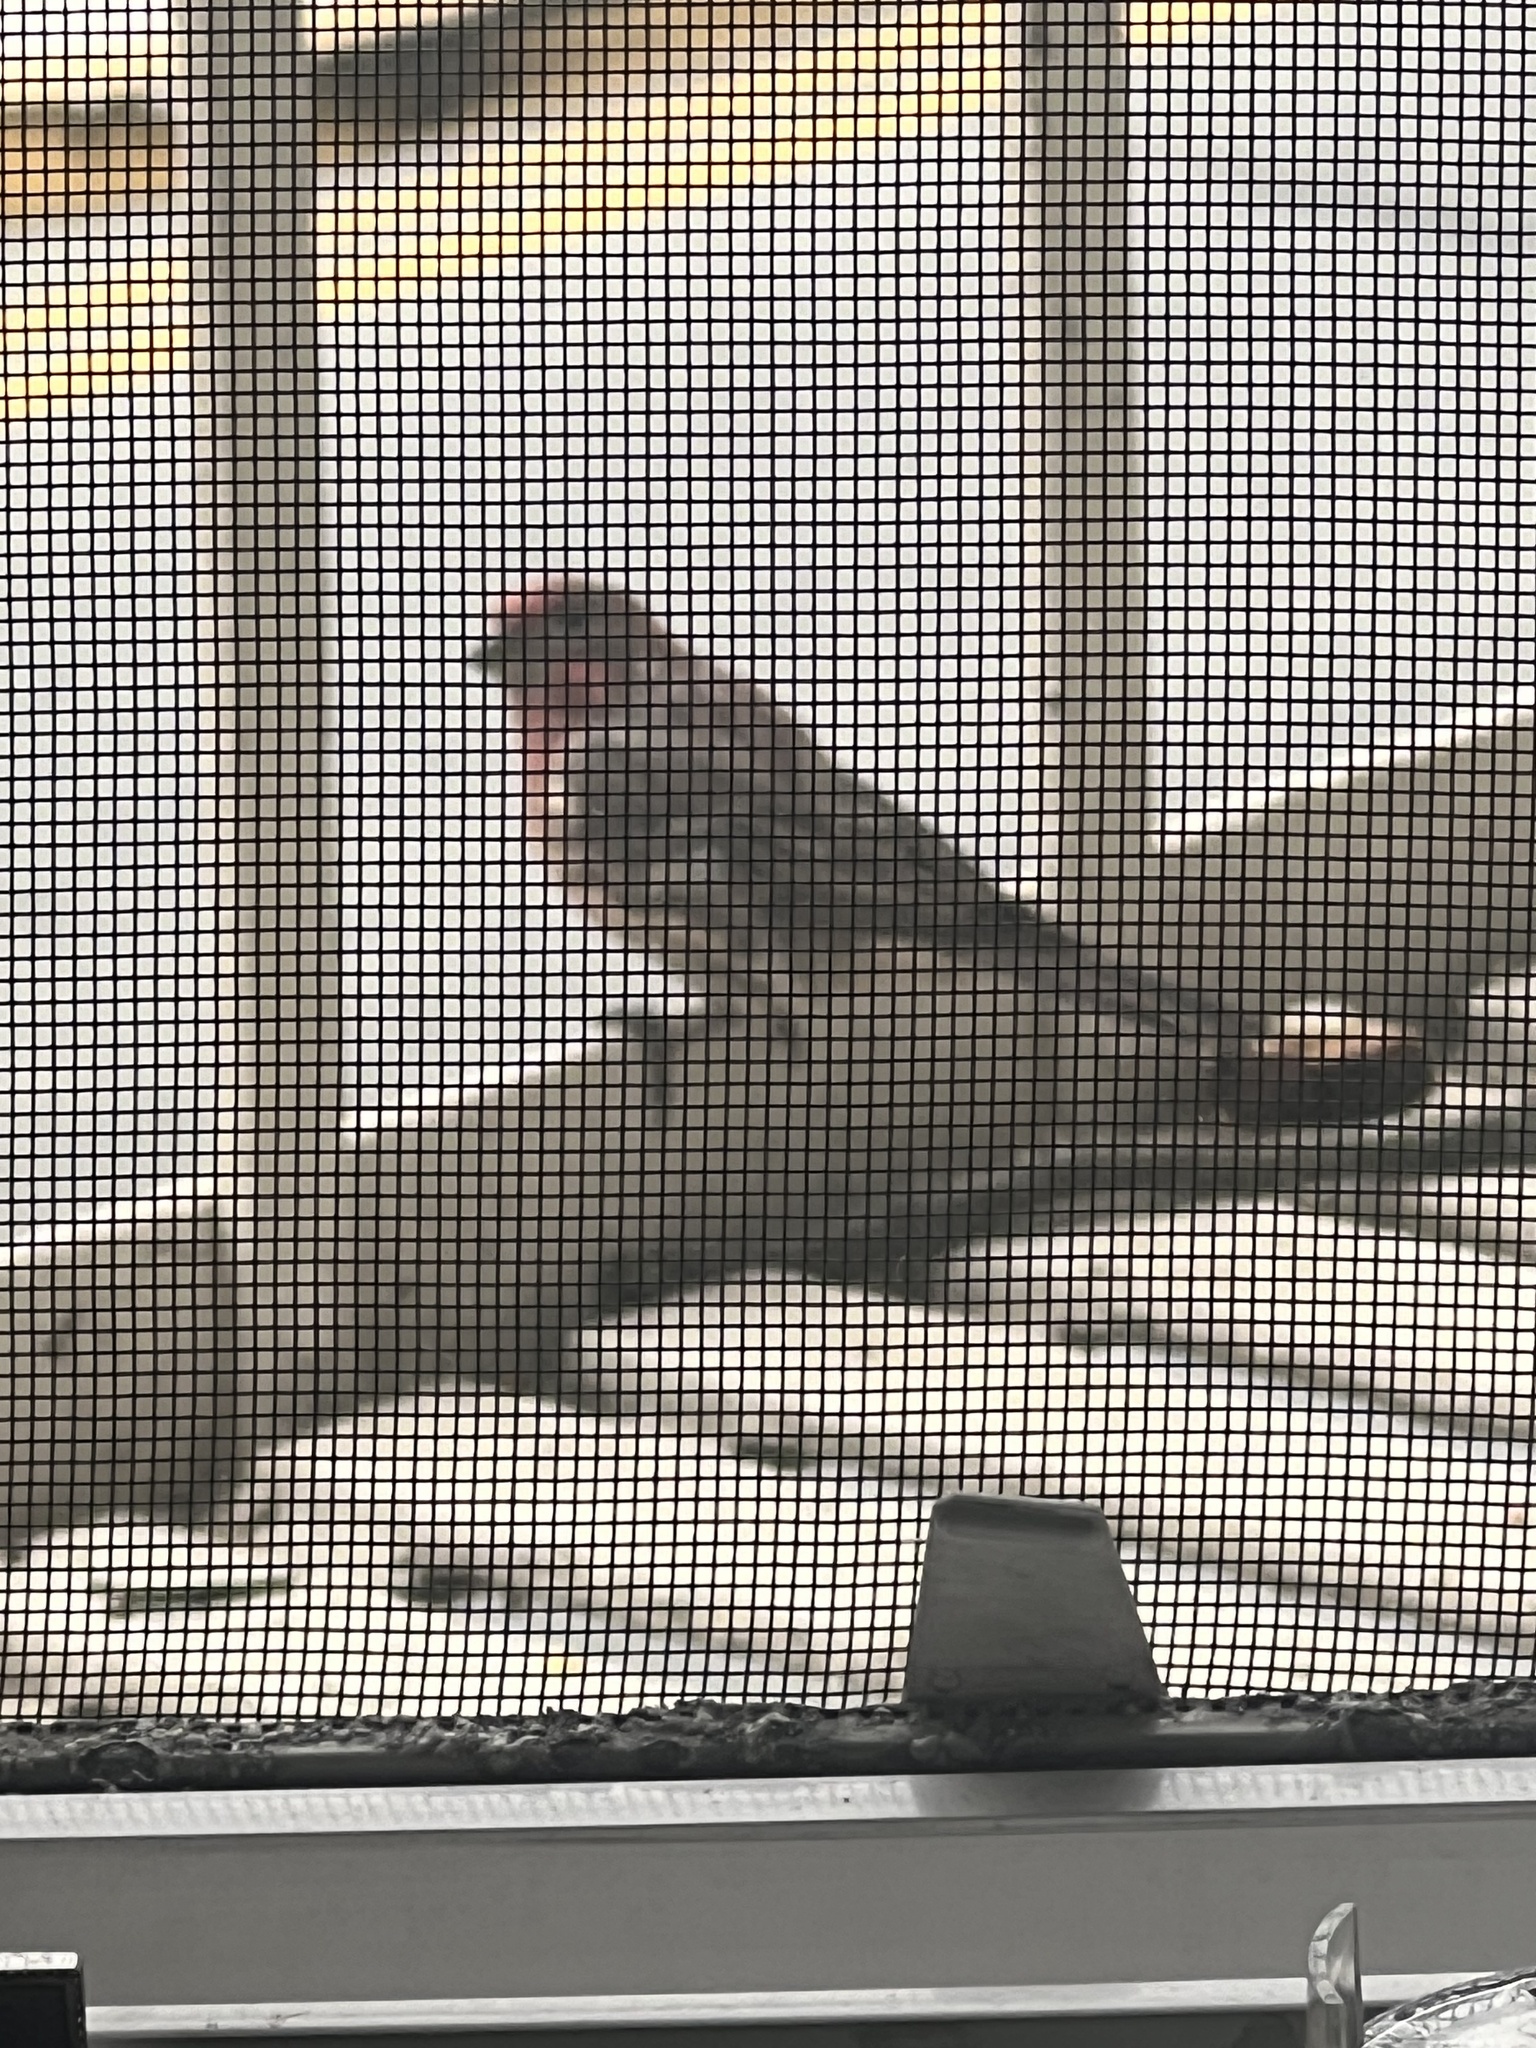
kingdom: Animalia
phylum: Chordata
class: Aves
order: Passeriformes
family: Fringillidae
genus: Haemorhous
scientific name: Haemorhous mexicanus
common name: House finch
